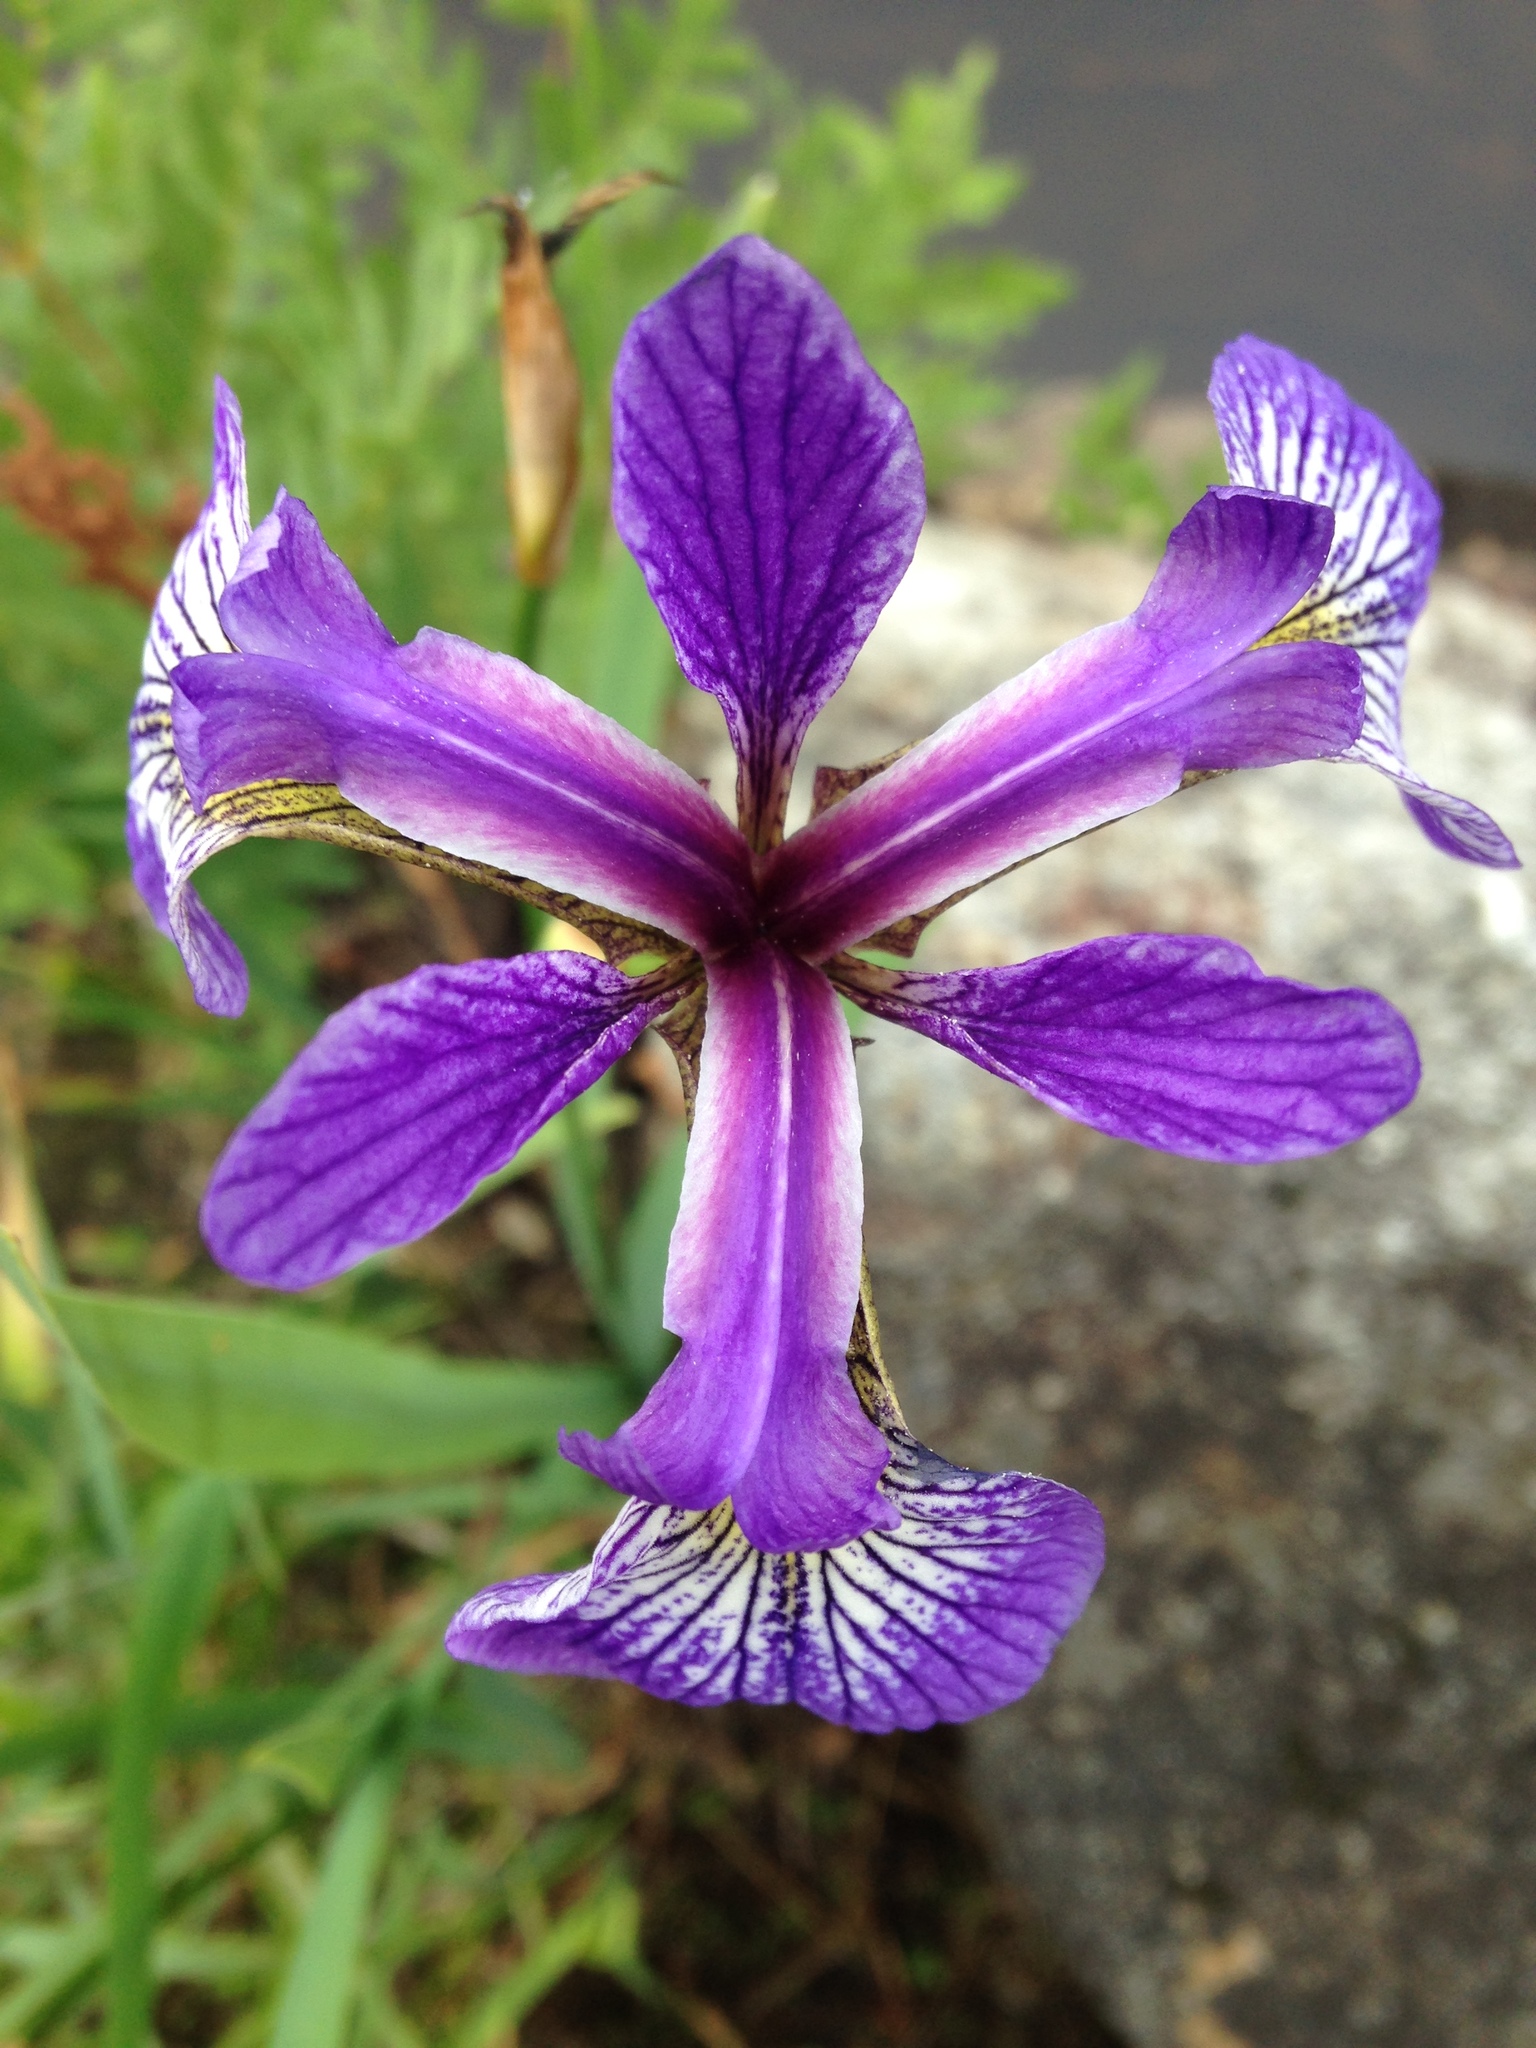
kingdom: Plantae
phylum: Tracheophyta
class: Liliopsida
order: Asparagales
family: Iridaceae
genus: Iris
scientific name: Iris versicolor
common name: Purple iris
